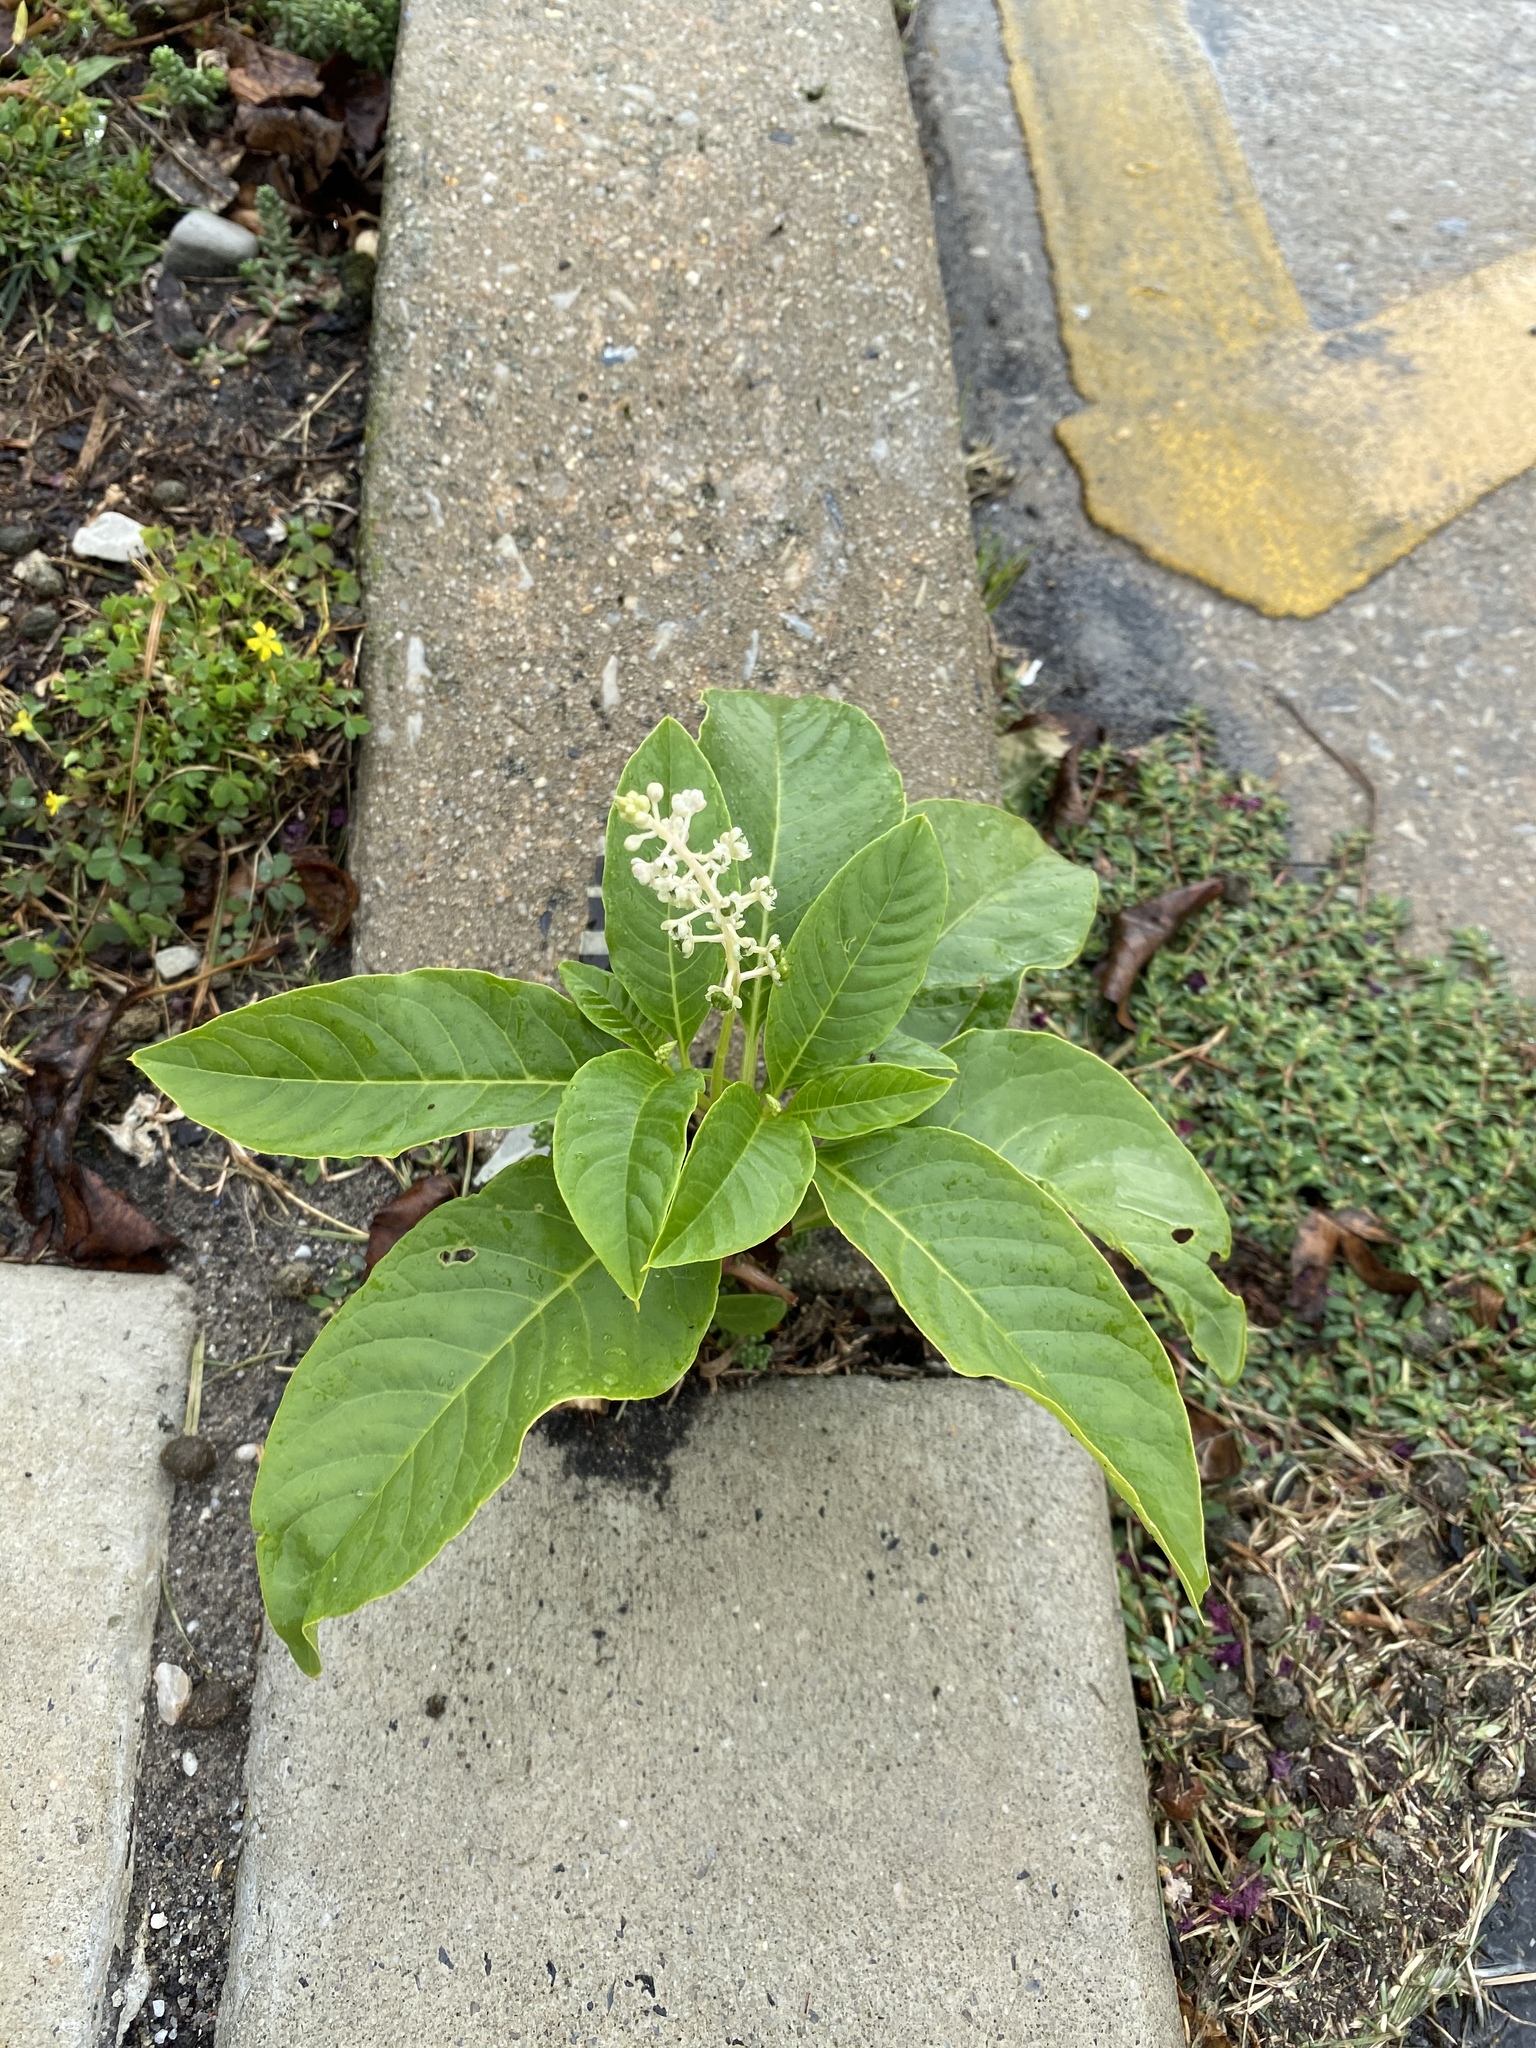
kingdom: Plantae
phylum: Tracheophyta
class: Magnoliopsida
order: Caryophyllales
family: Phytolaccaceae
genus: Phytolacca
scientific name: Phytolacca americana
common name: American pokeweed
